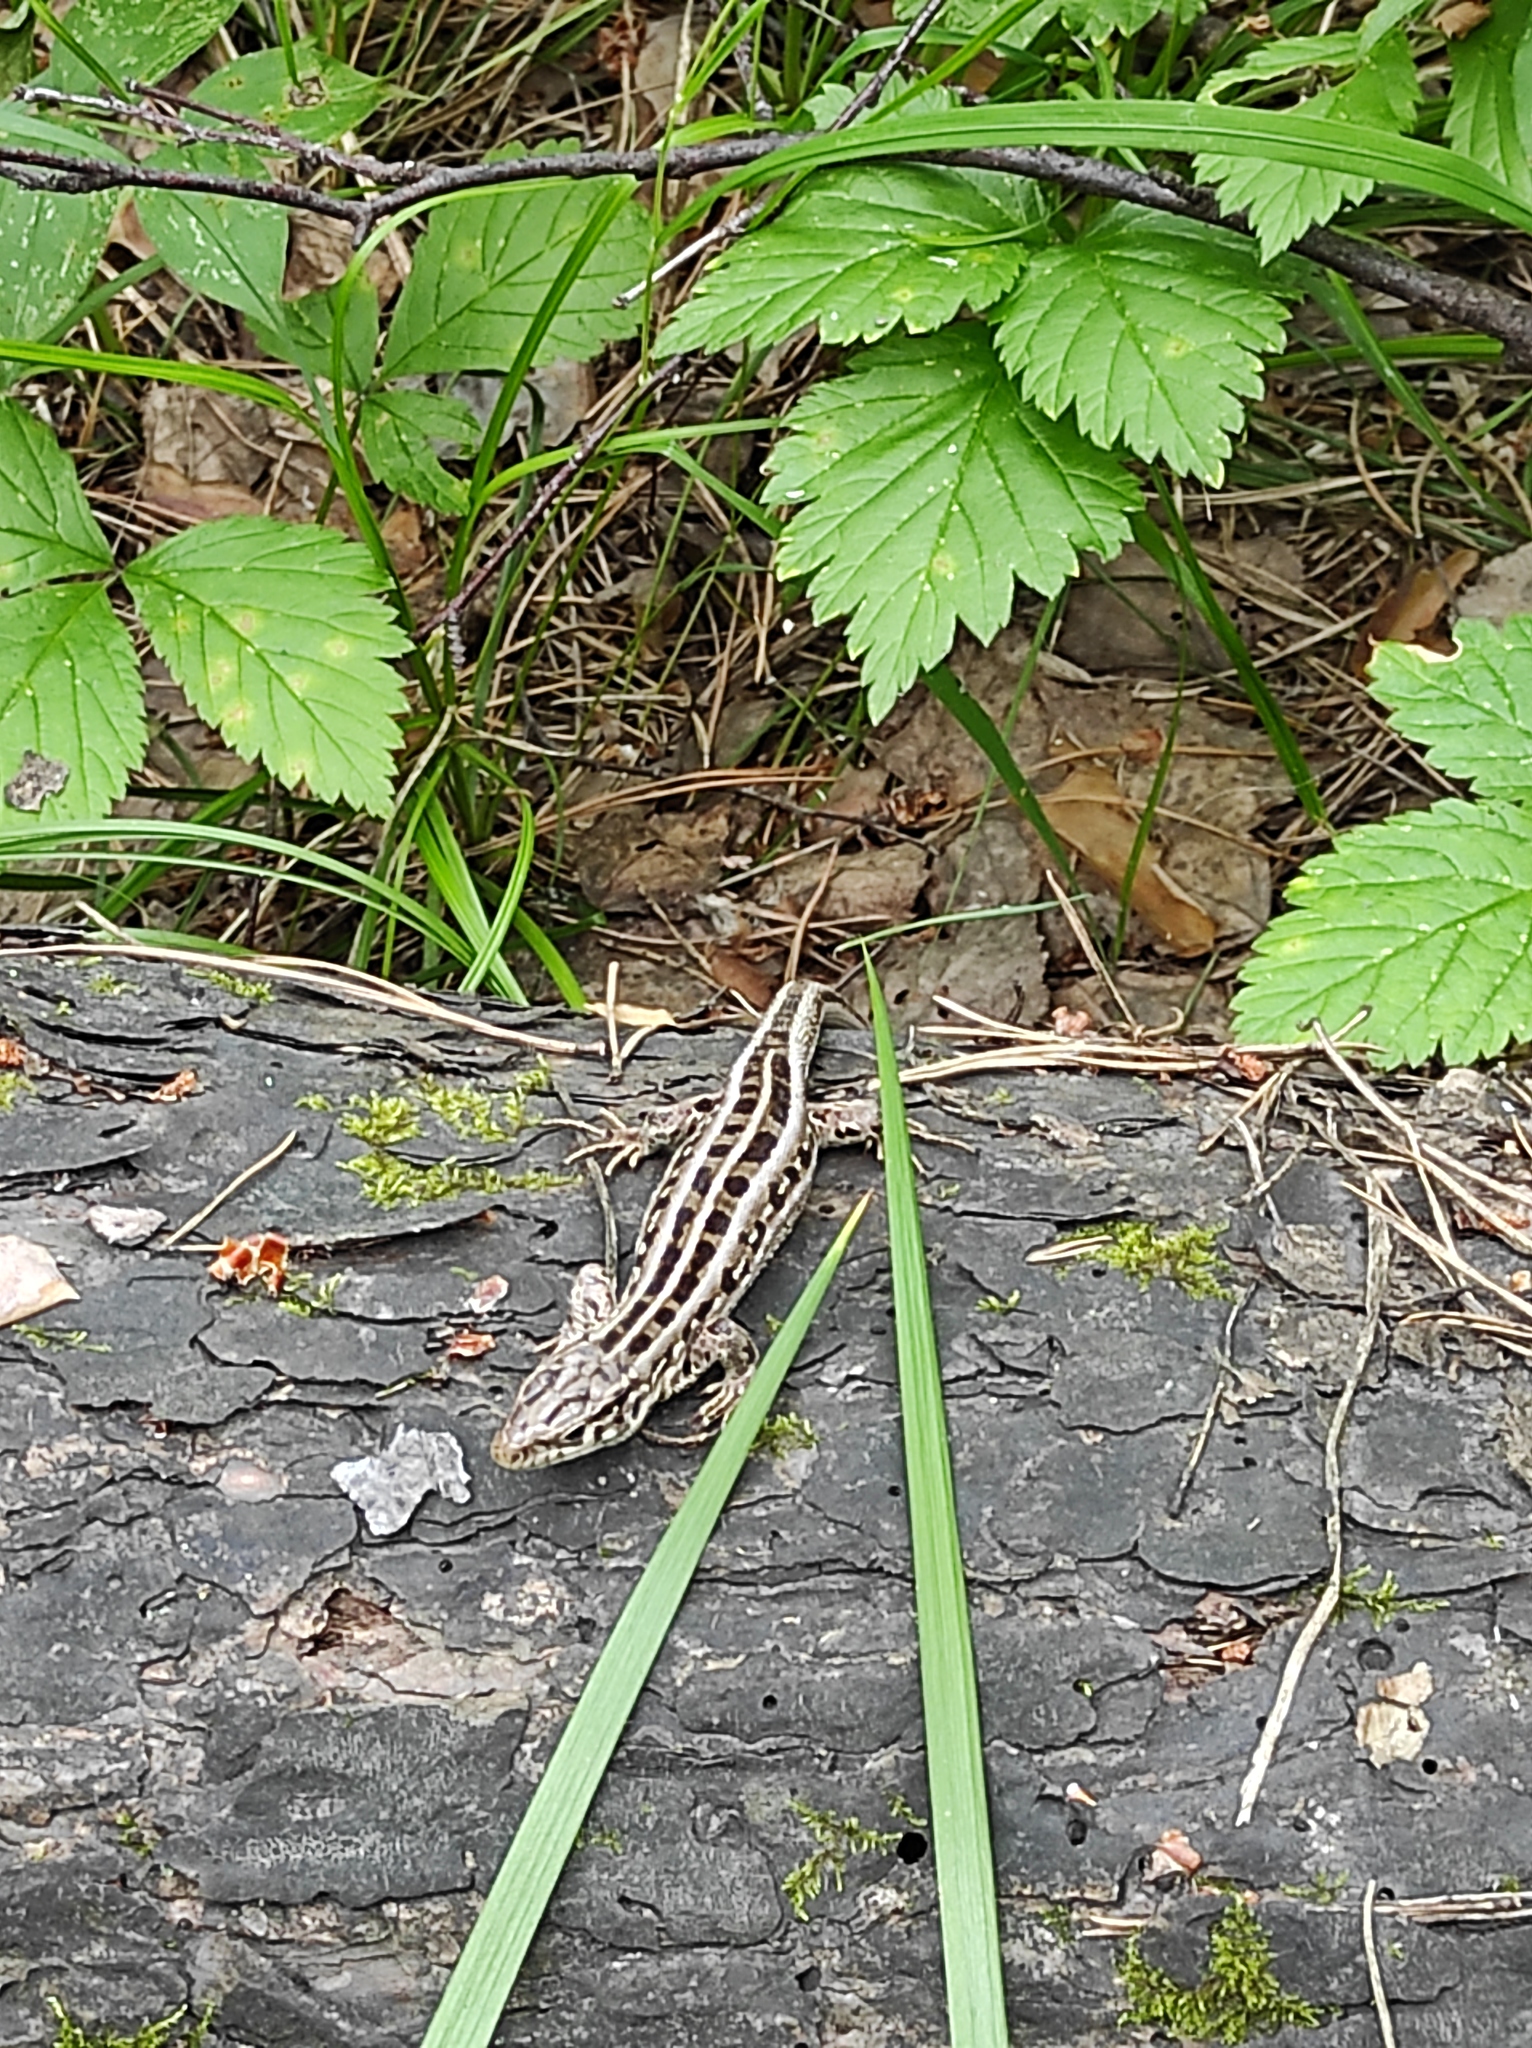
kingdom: Animalia
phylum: Chordata
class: Squamata
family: Lacertidae
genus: Lacerta
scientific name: Lacerta agilis
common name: Sand lizard
